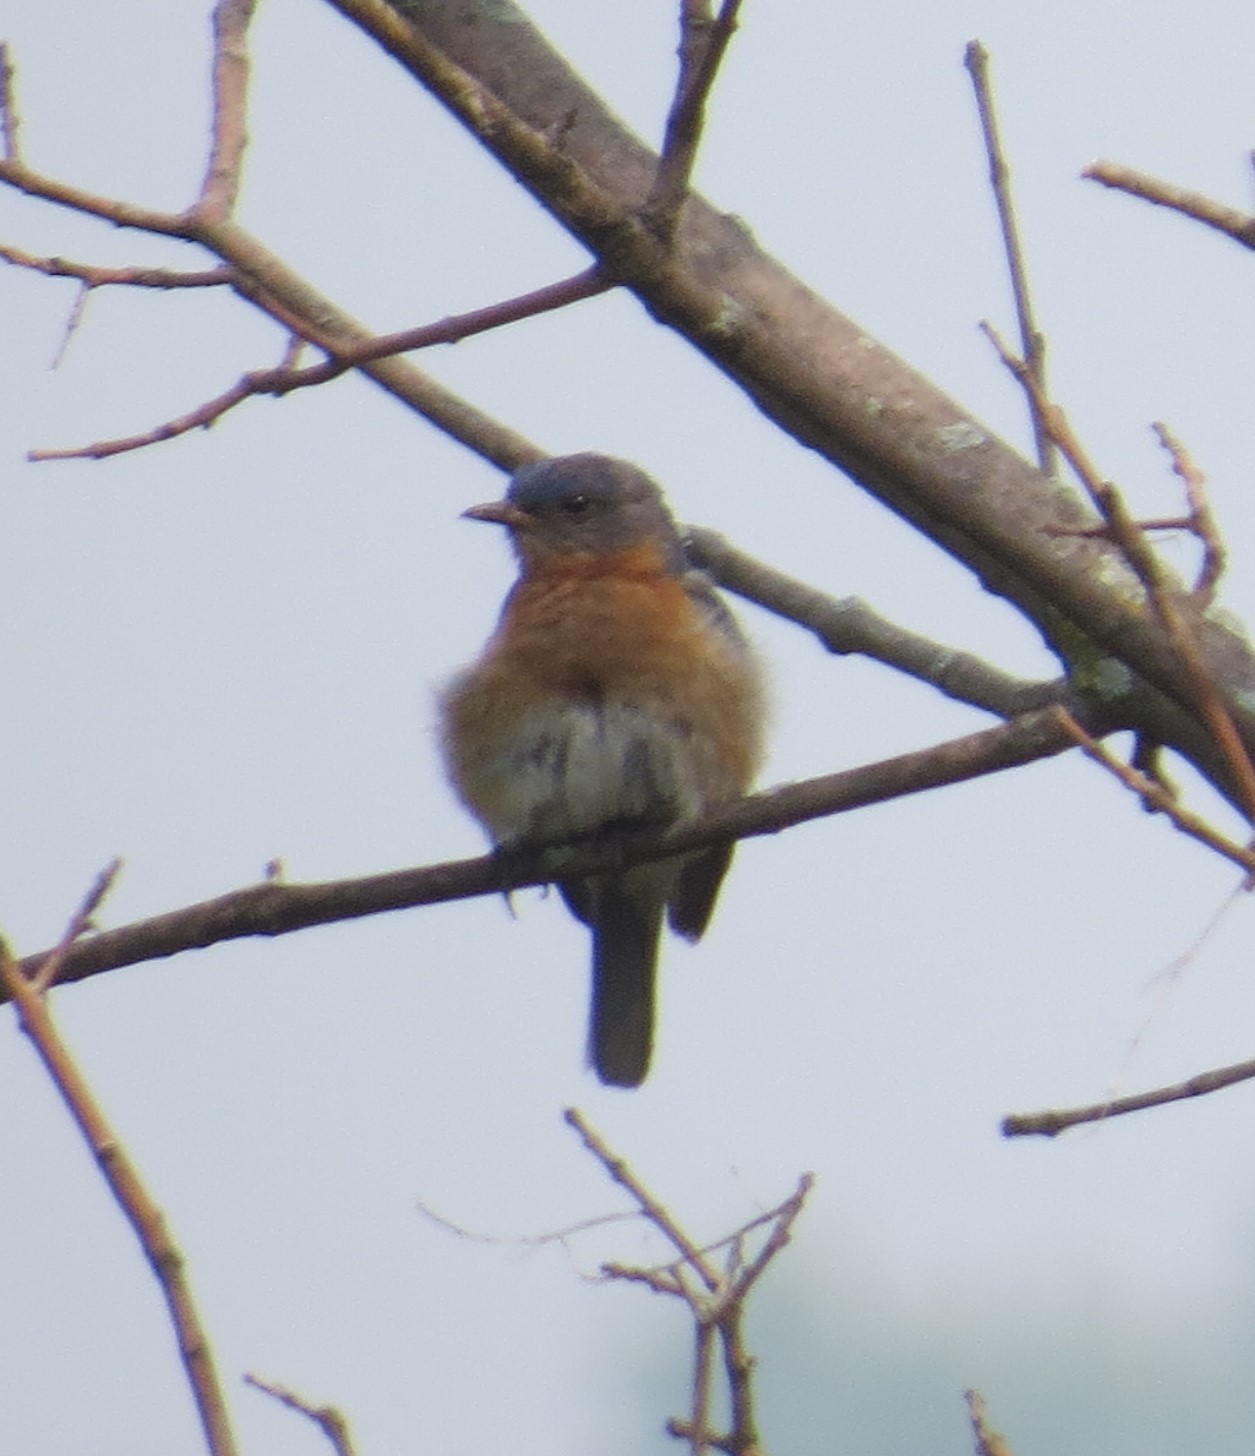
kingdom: Animalia
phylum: Chordata
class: Aves
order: Passeriformes
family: Turdidae
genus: Sialia
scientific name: Sialia sialis
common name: Eastern bluebird
